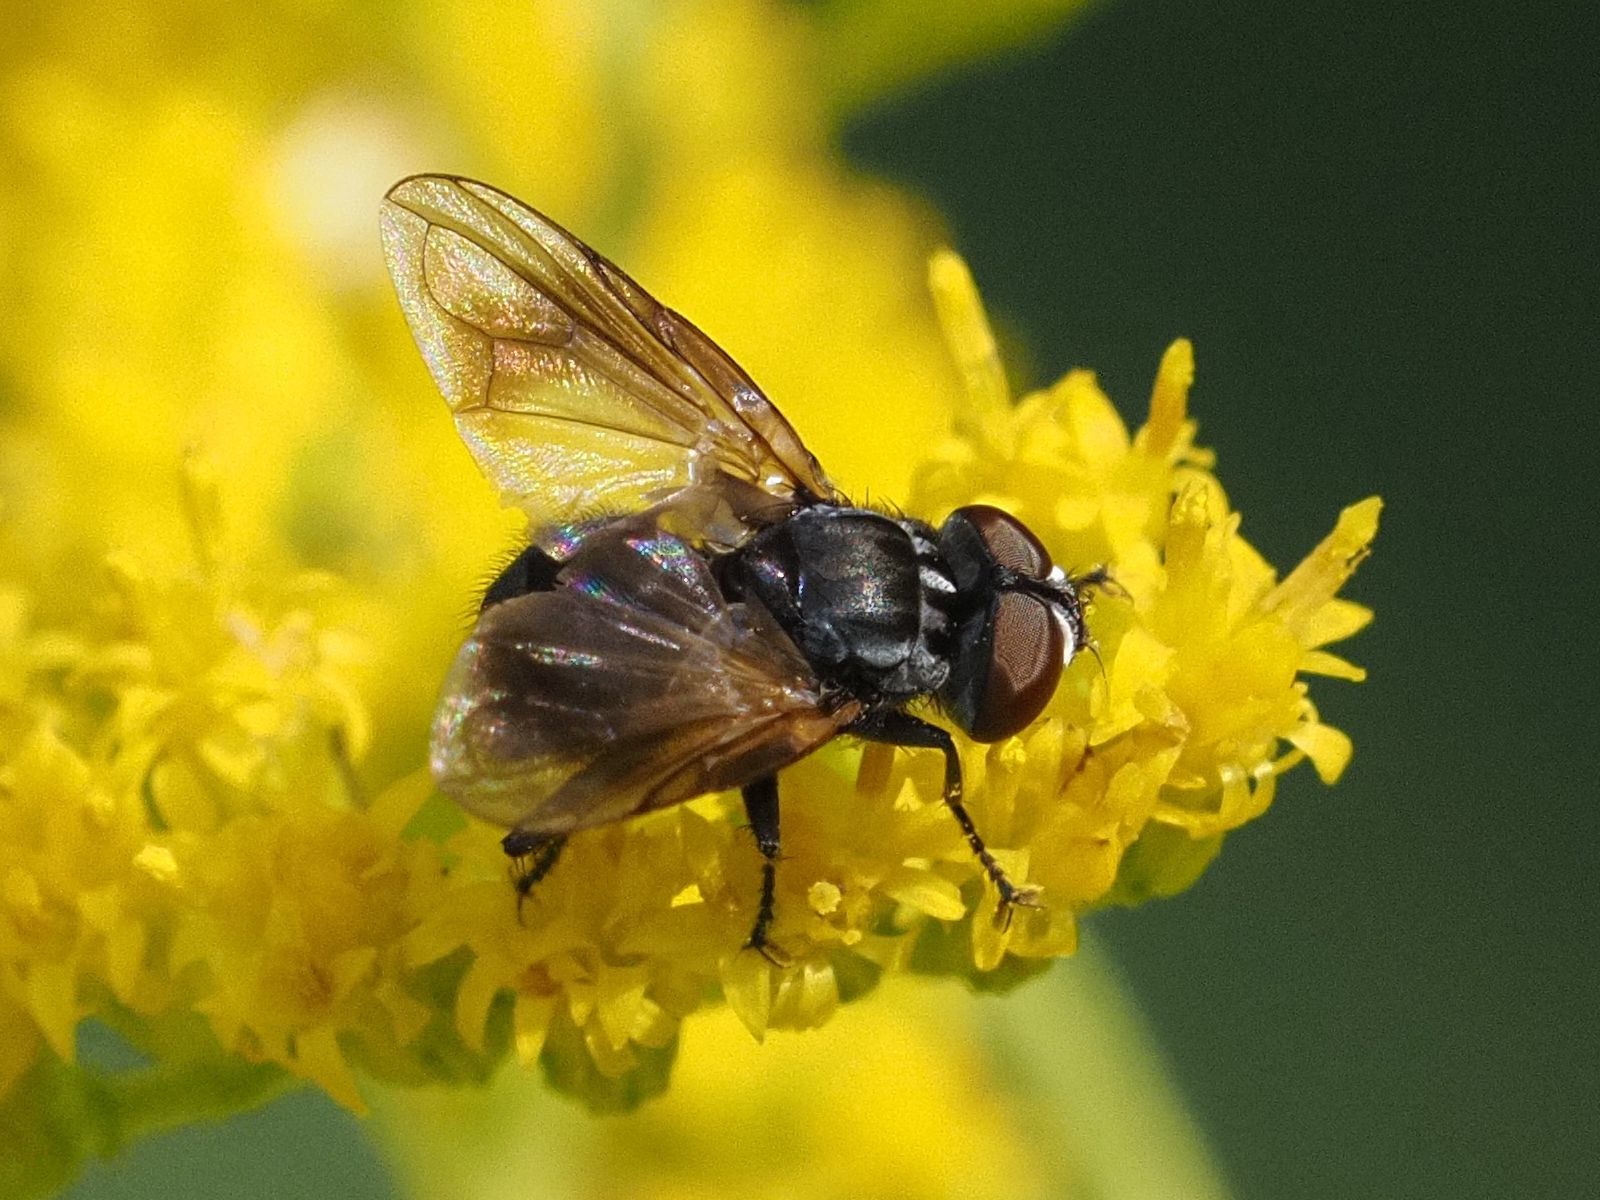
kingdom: Animalia
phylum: Arthropoda
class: Insecta
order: Diptera
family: Tachinidae
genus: Phasia
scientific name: Phasia obesa
